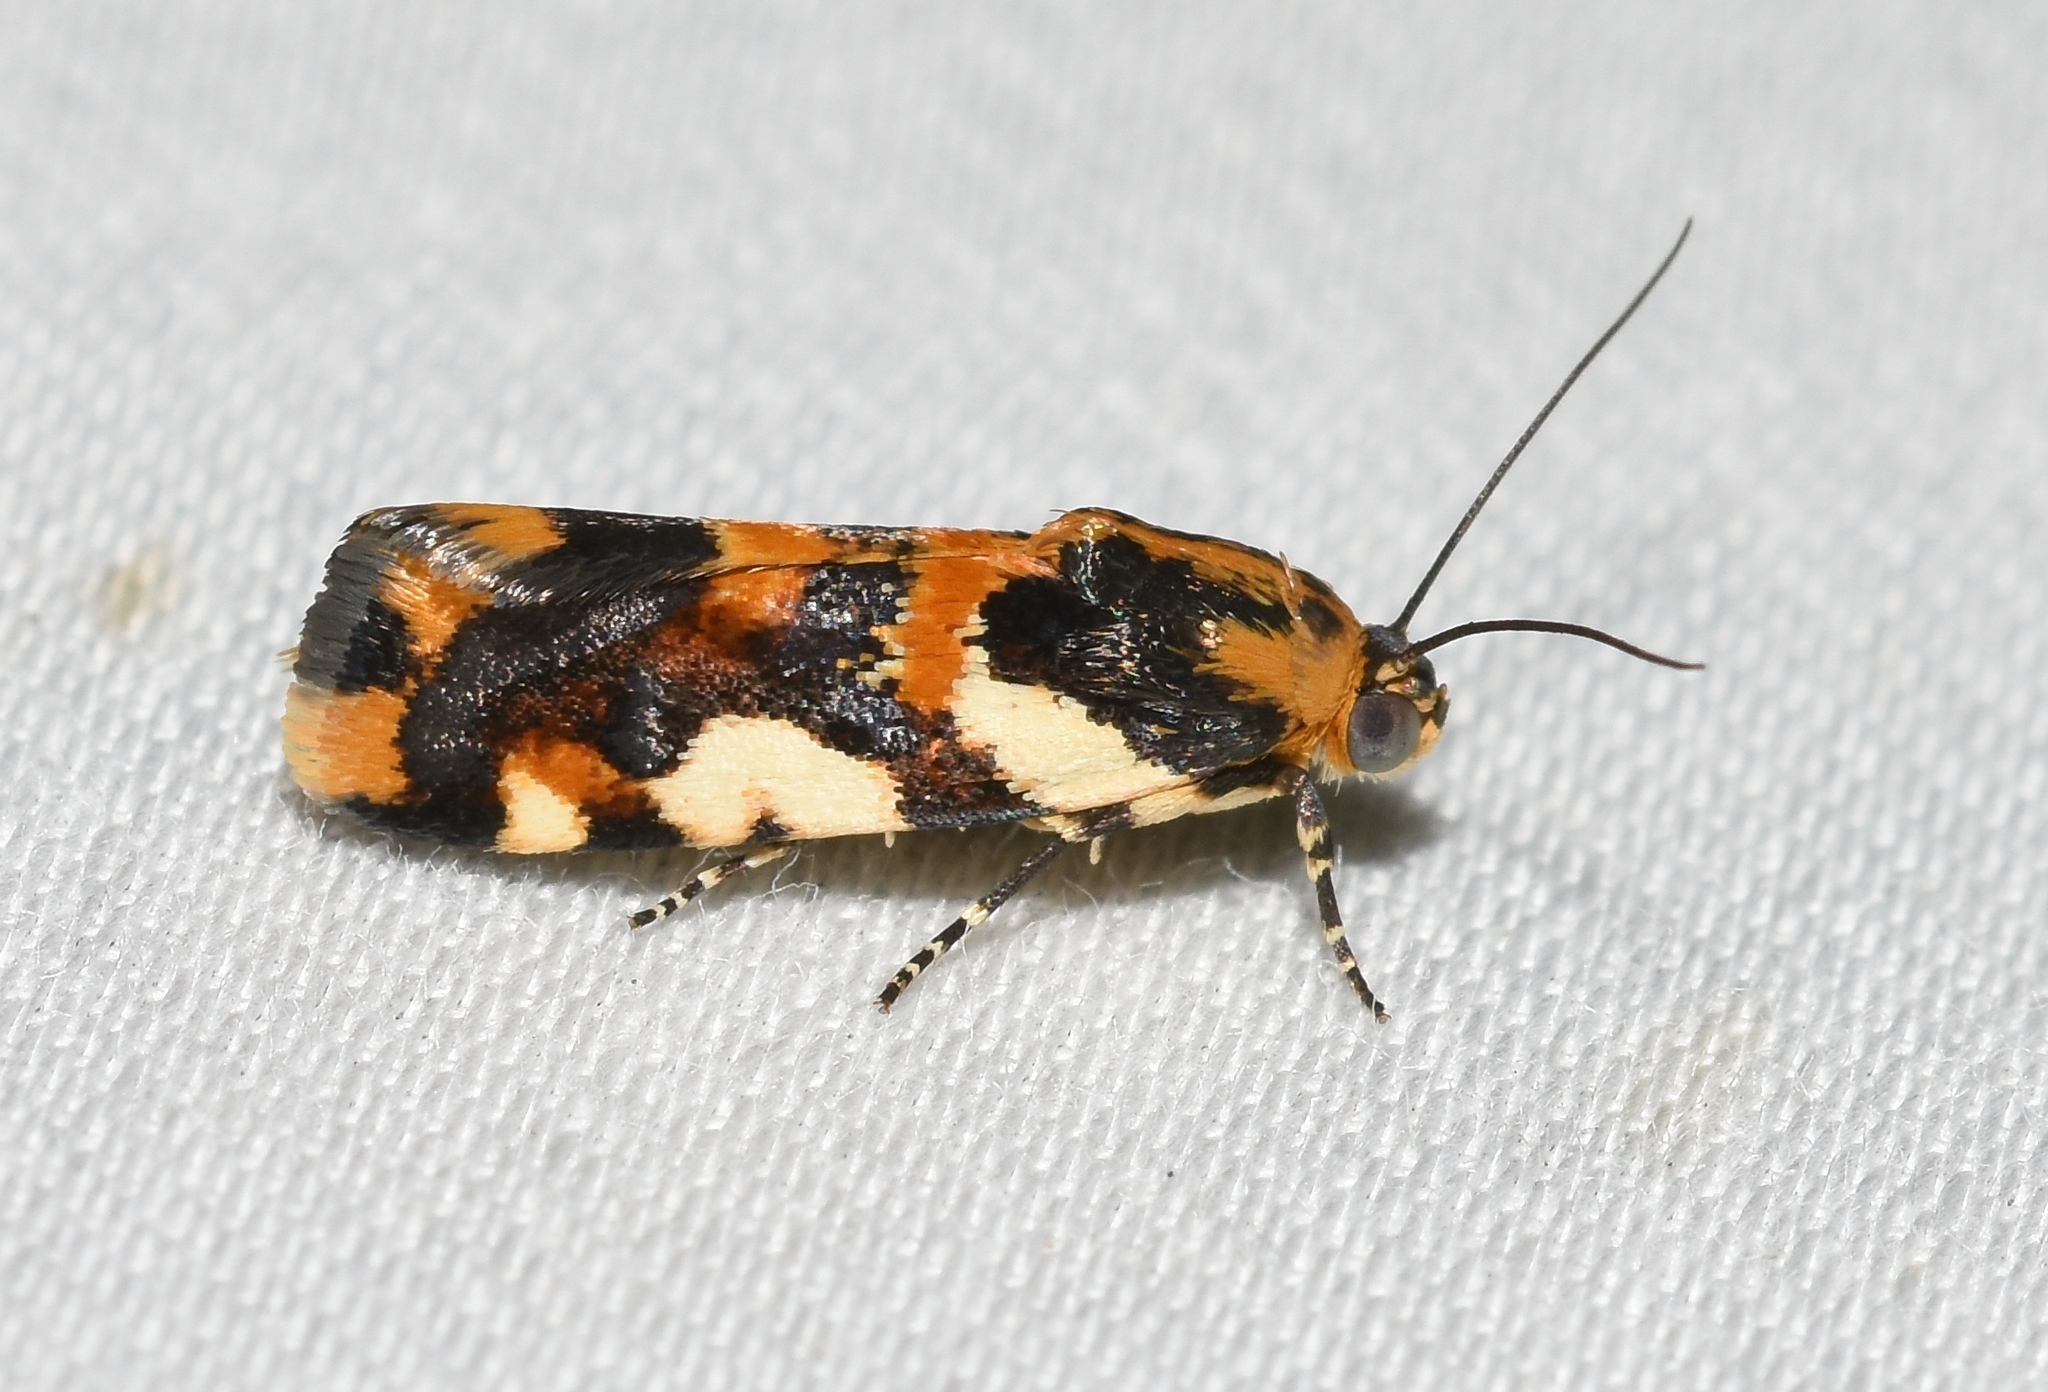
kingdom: Animalia
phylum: Arthropoda
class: Insecta
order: Lepidoptera
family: Noctuidae
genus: Acontia
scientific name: Acontia dama
